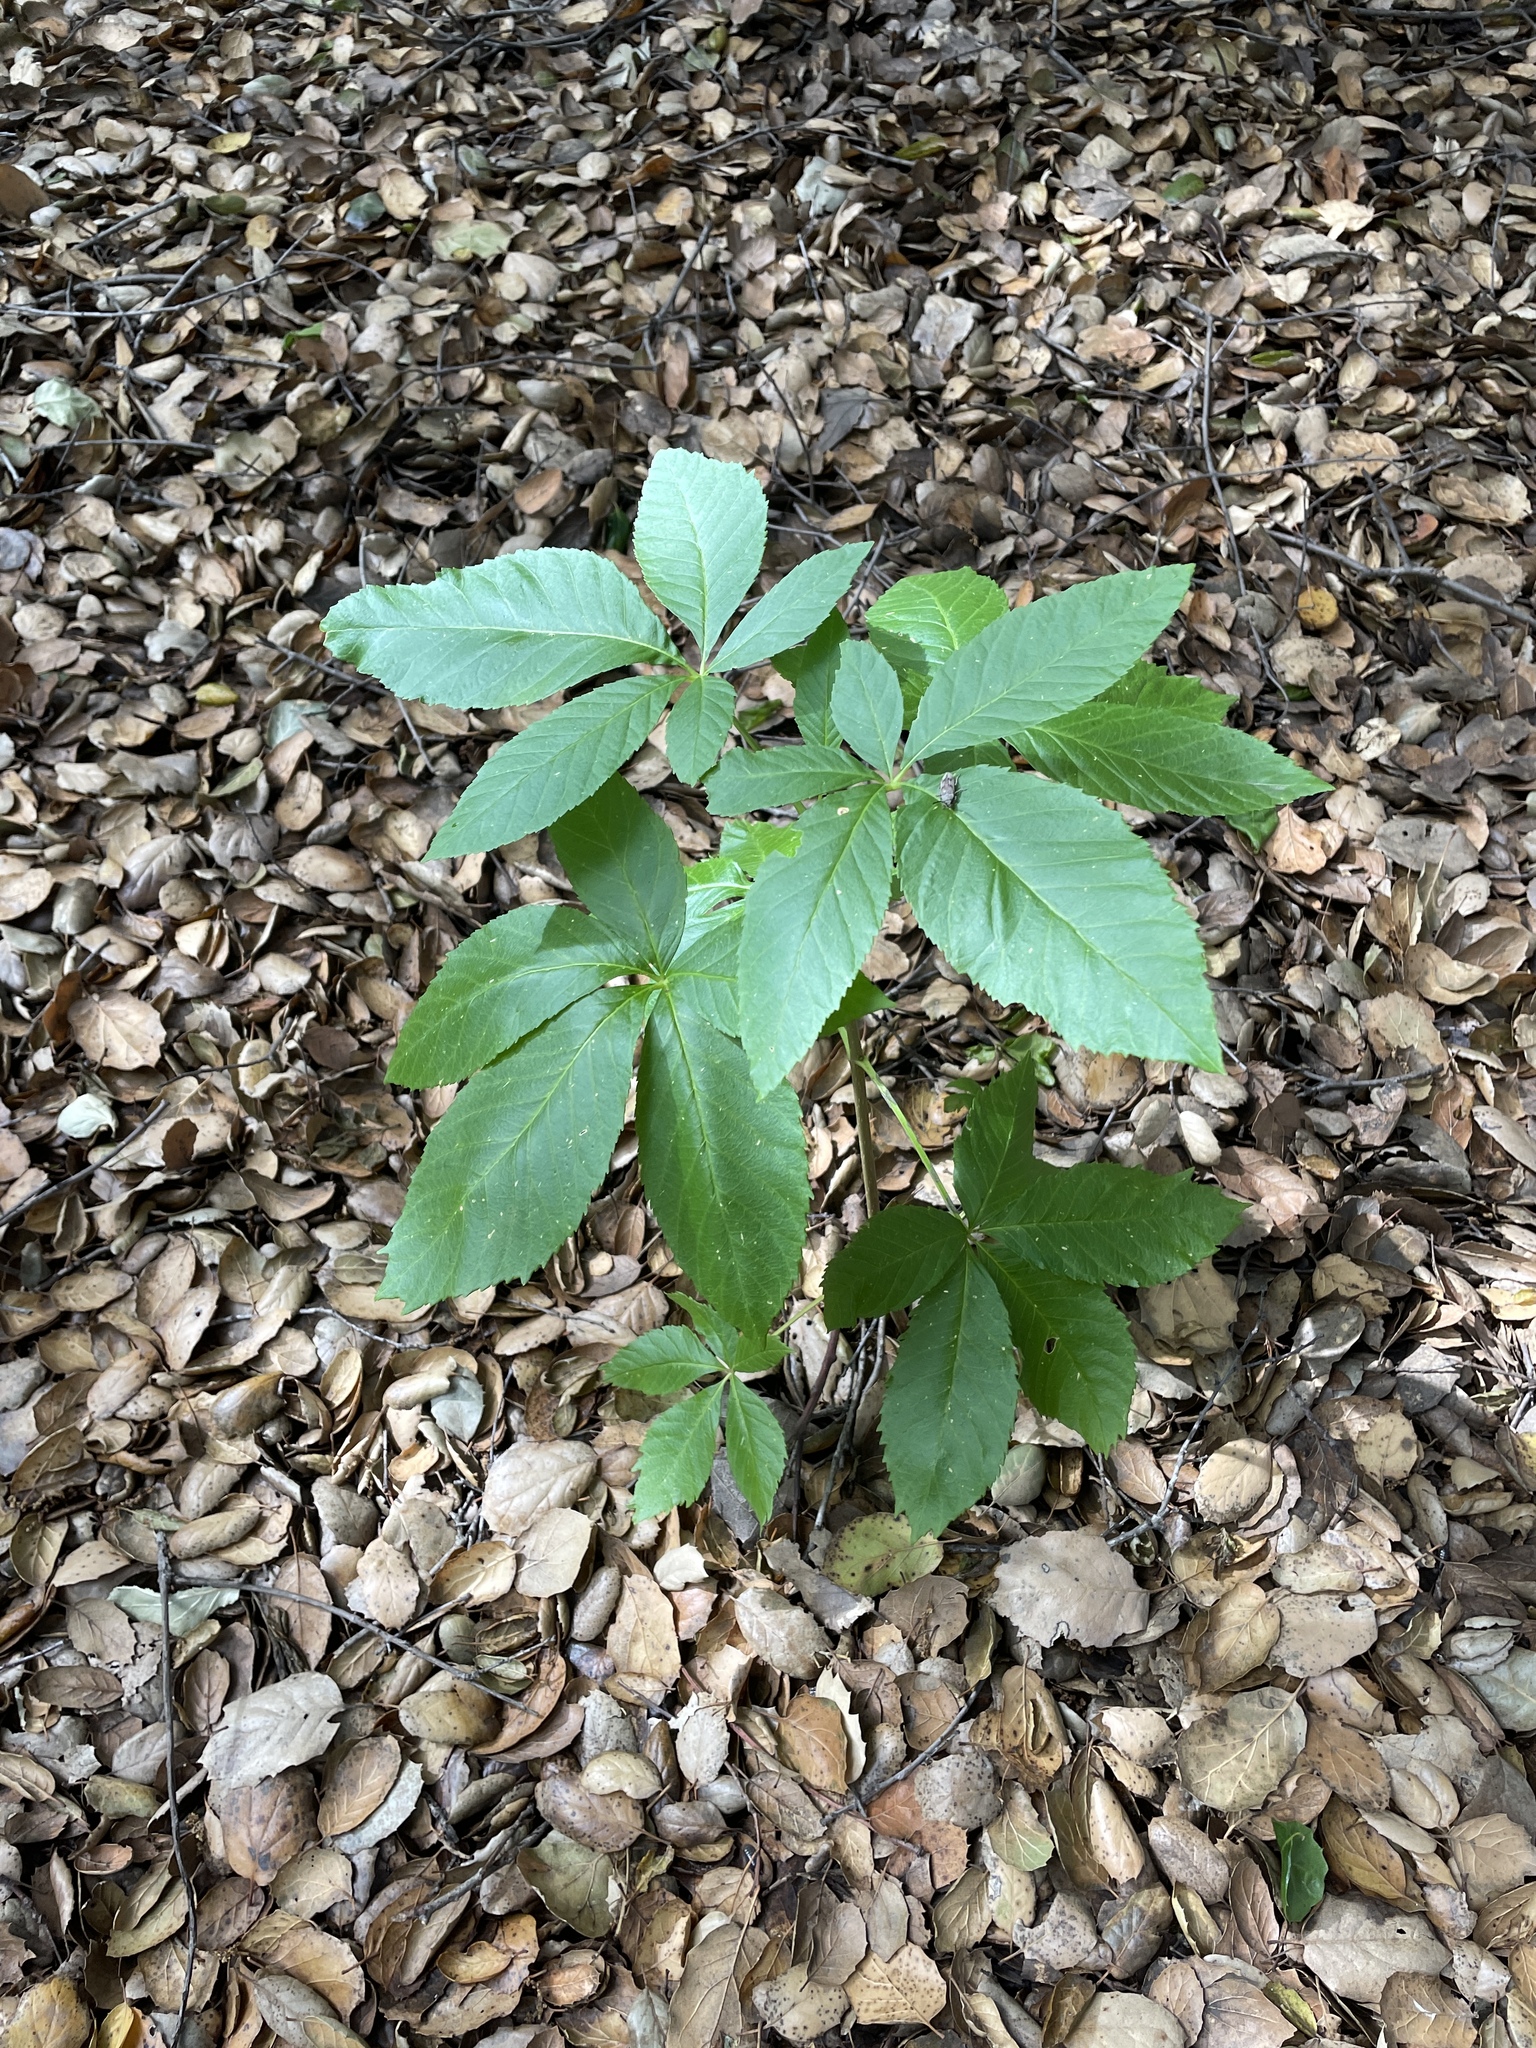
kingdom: Plantae
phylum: Tracheophyta
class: Magnoliopsida
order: Sapindales
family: Sapindaceae
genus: Aesculus
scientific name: Aesculus californica
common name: California buckeye
